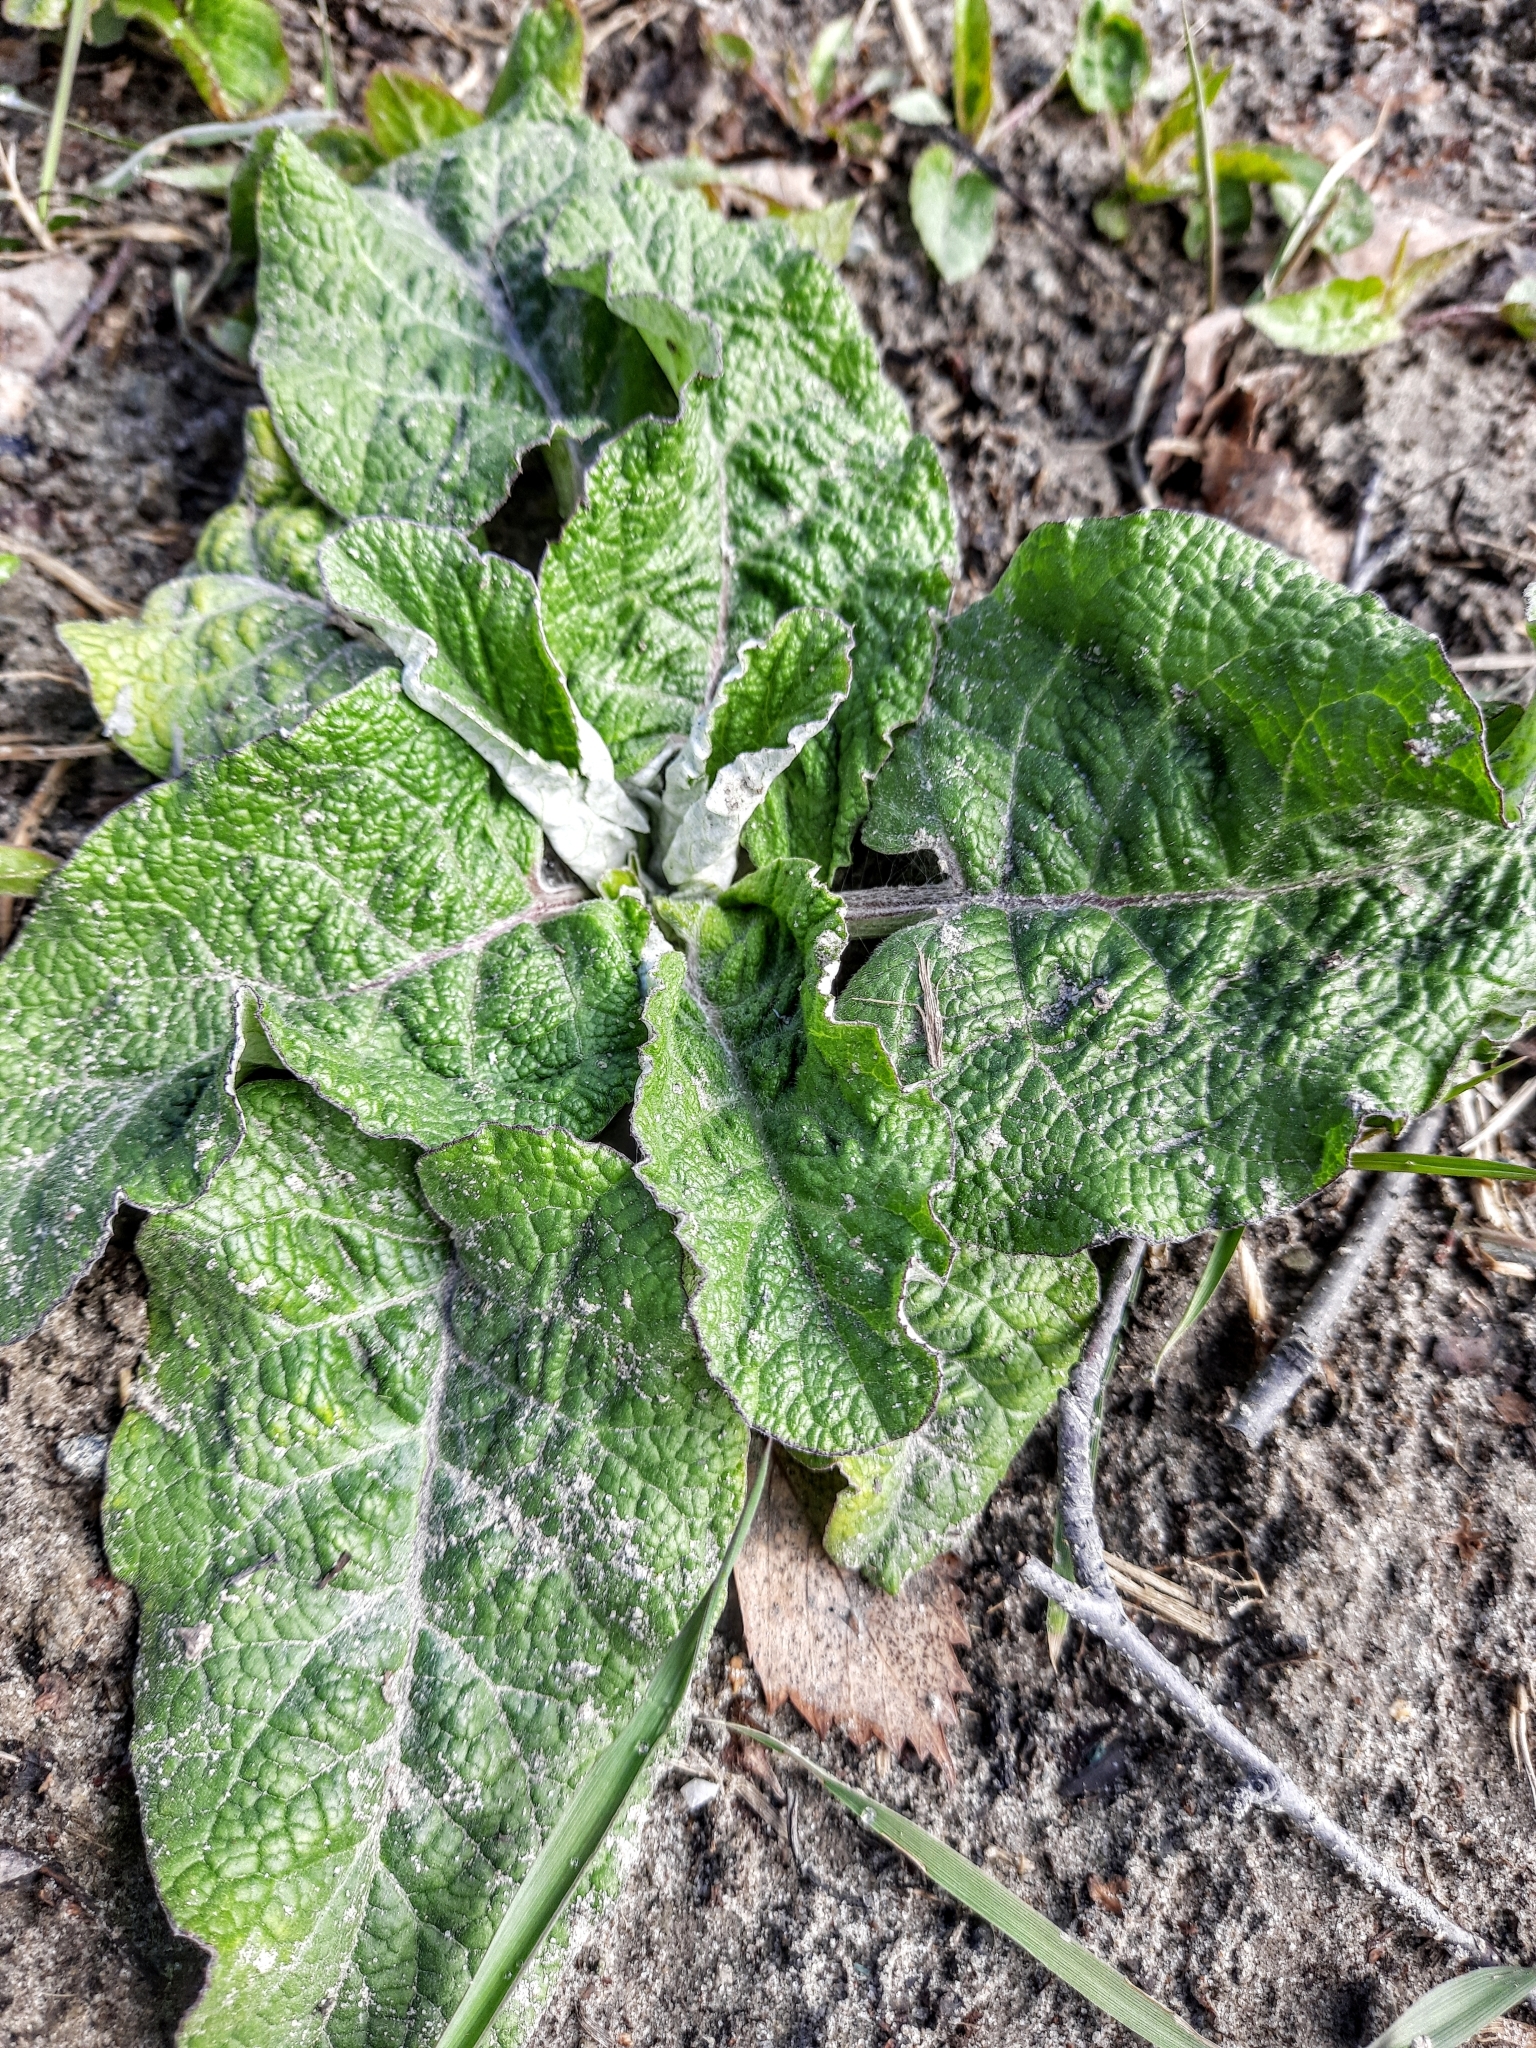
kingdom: Plantae
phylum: Tracheophyta
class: Magnoliopsida
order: Asterales
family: Asteraceae
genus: Arctium
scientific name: Arctium tomentosum
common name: Woolly burdock
